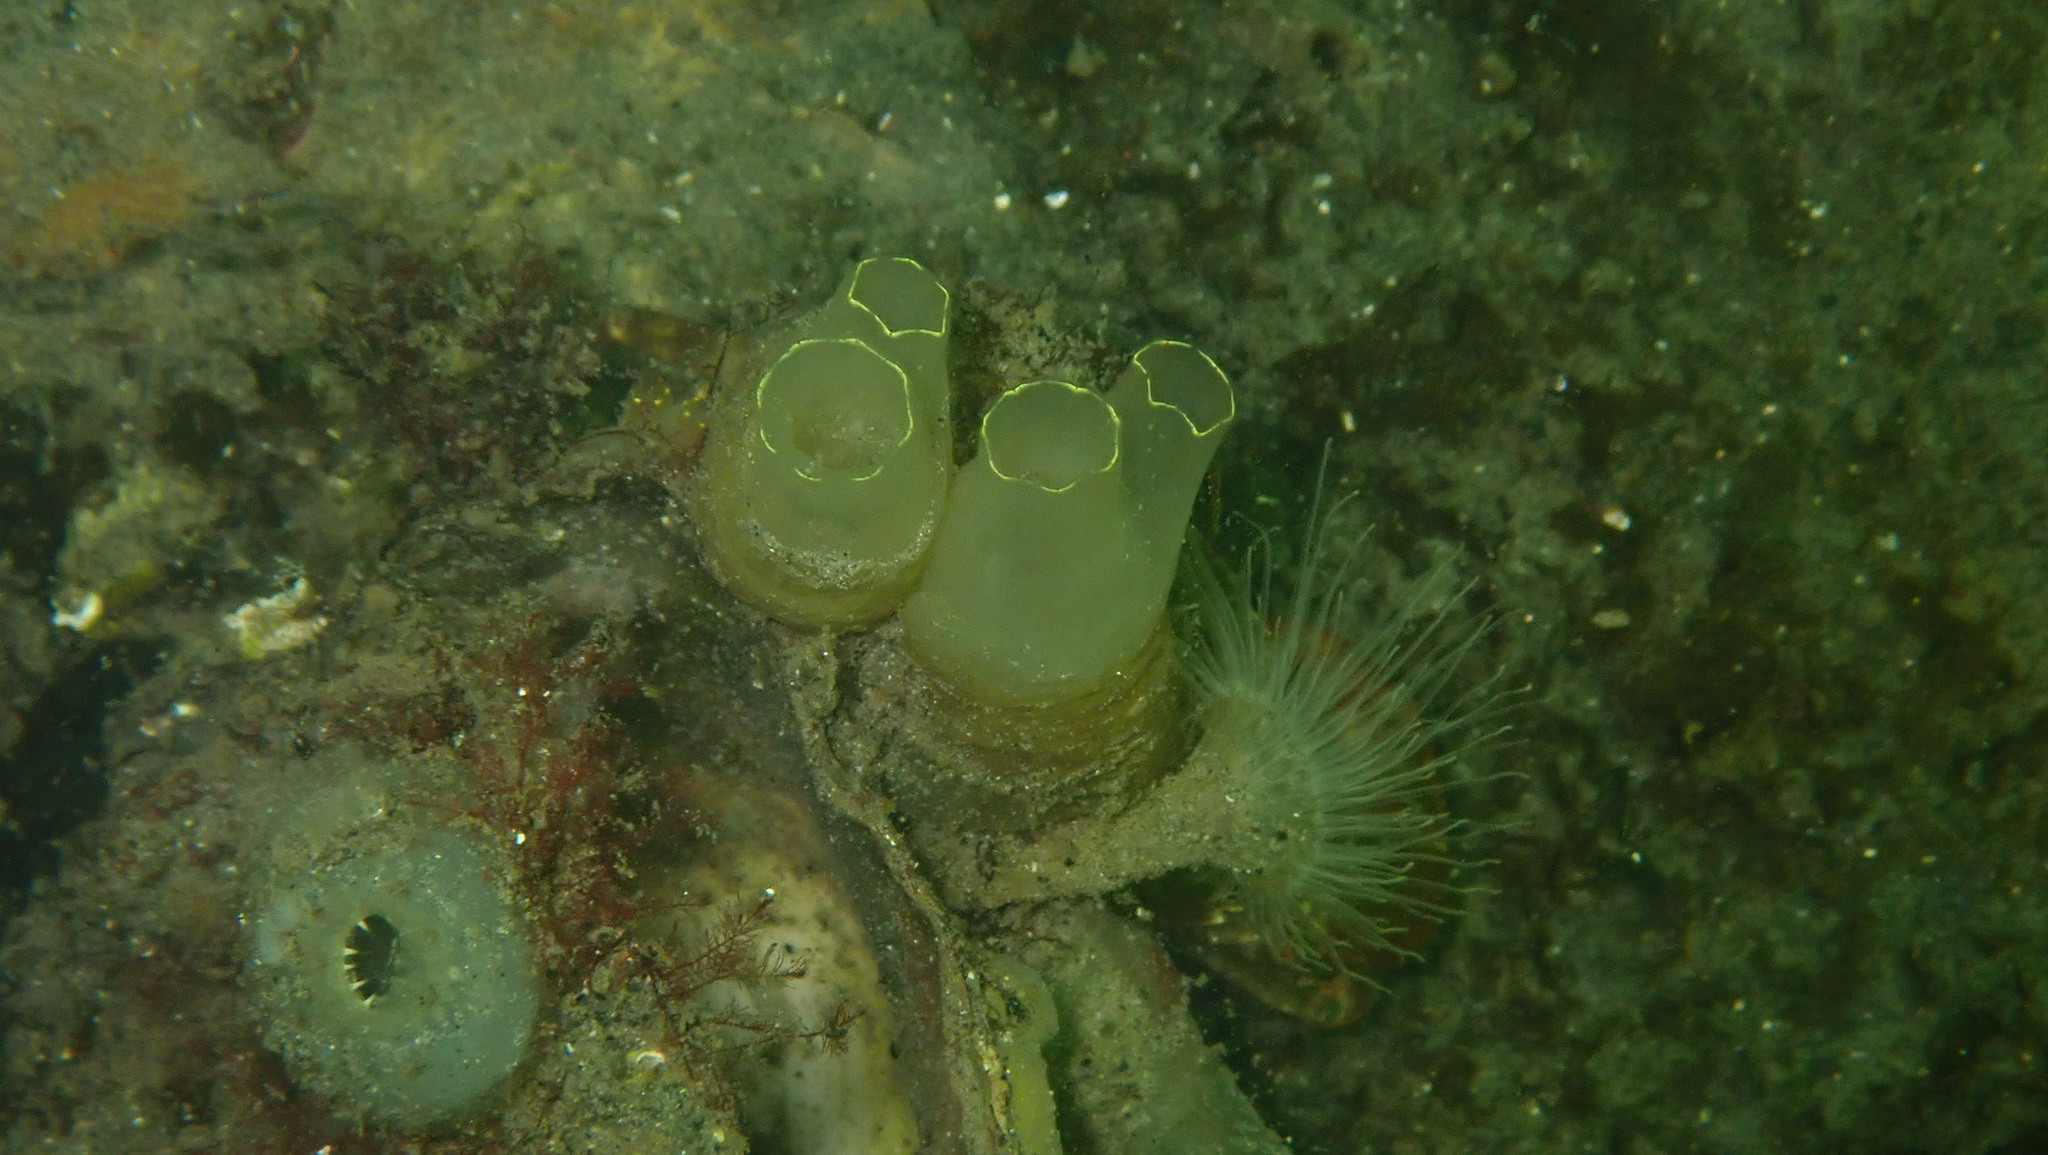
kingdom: Animalia
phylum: Chordata
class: Ascidiacea
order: Phlebobranchia
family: Cionidae
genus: Ciona
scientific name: Ciona intestinalis
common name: Vase tunicate
